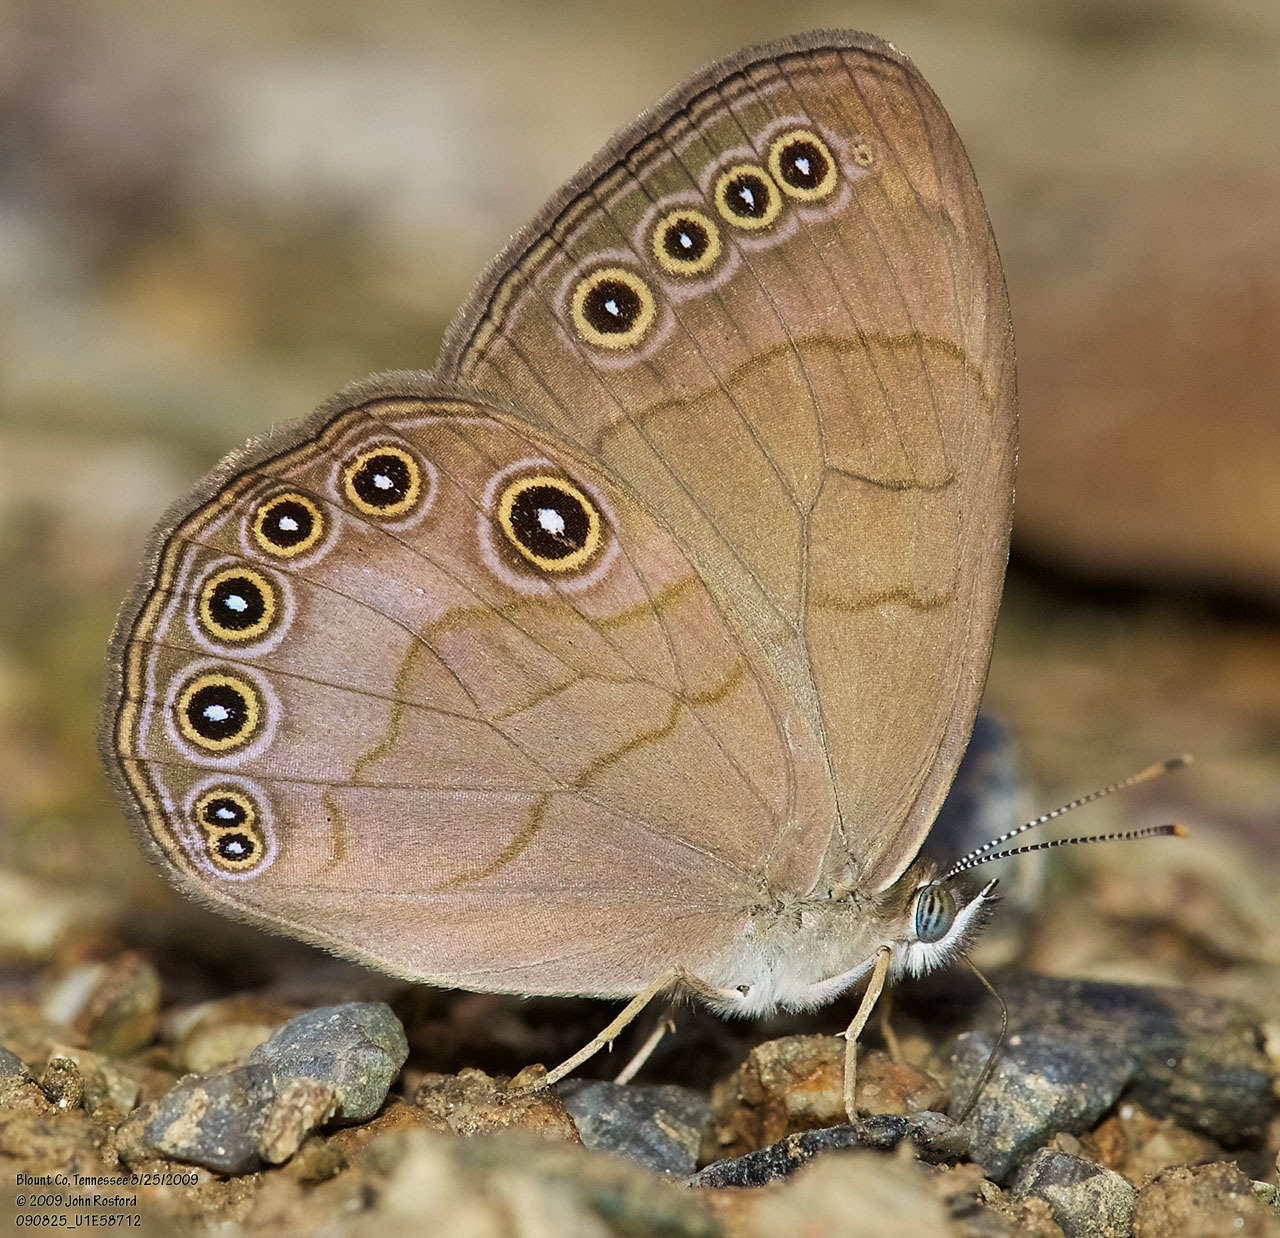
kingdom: Animalia
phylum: Arthropoda
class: Insecta
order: Lepidoptera
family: Nymphalidae
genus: Lethe
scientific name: Lethe eurydice
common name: Eyed brown
